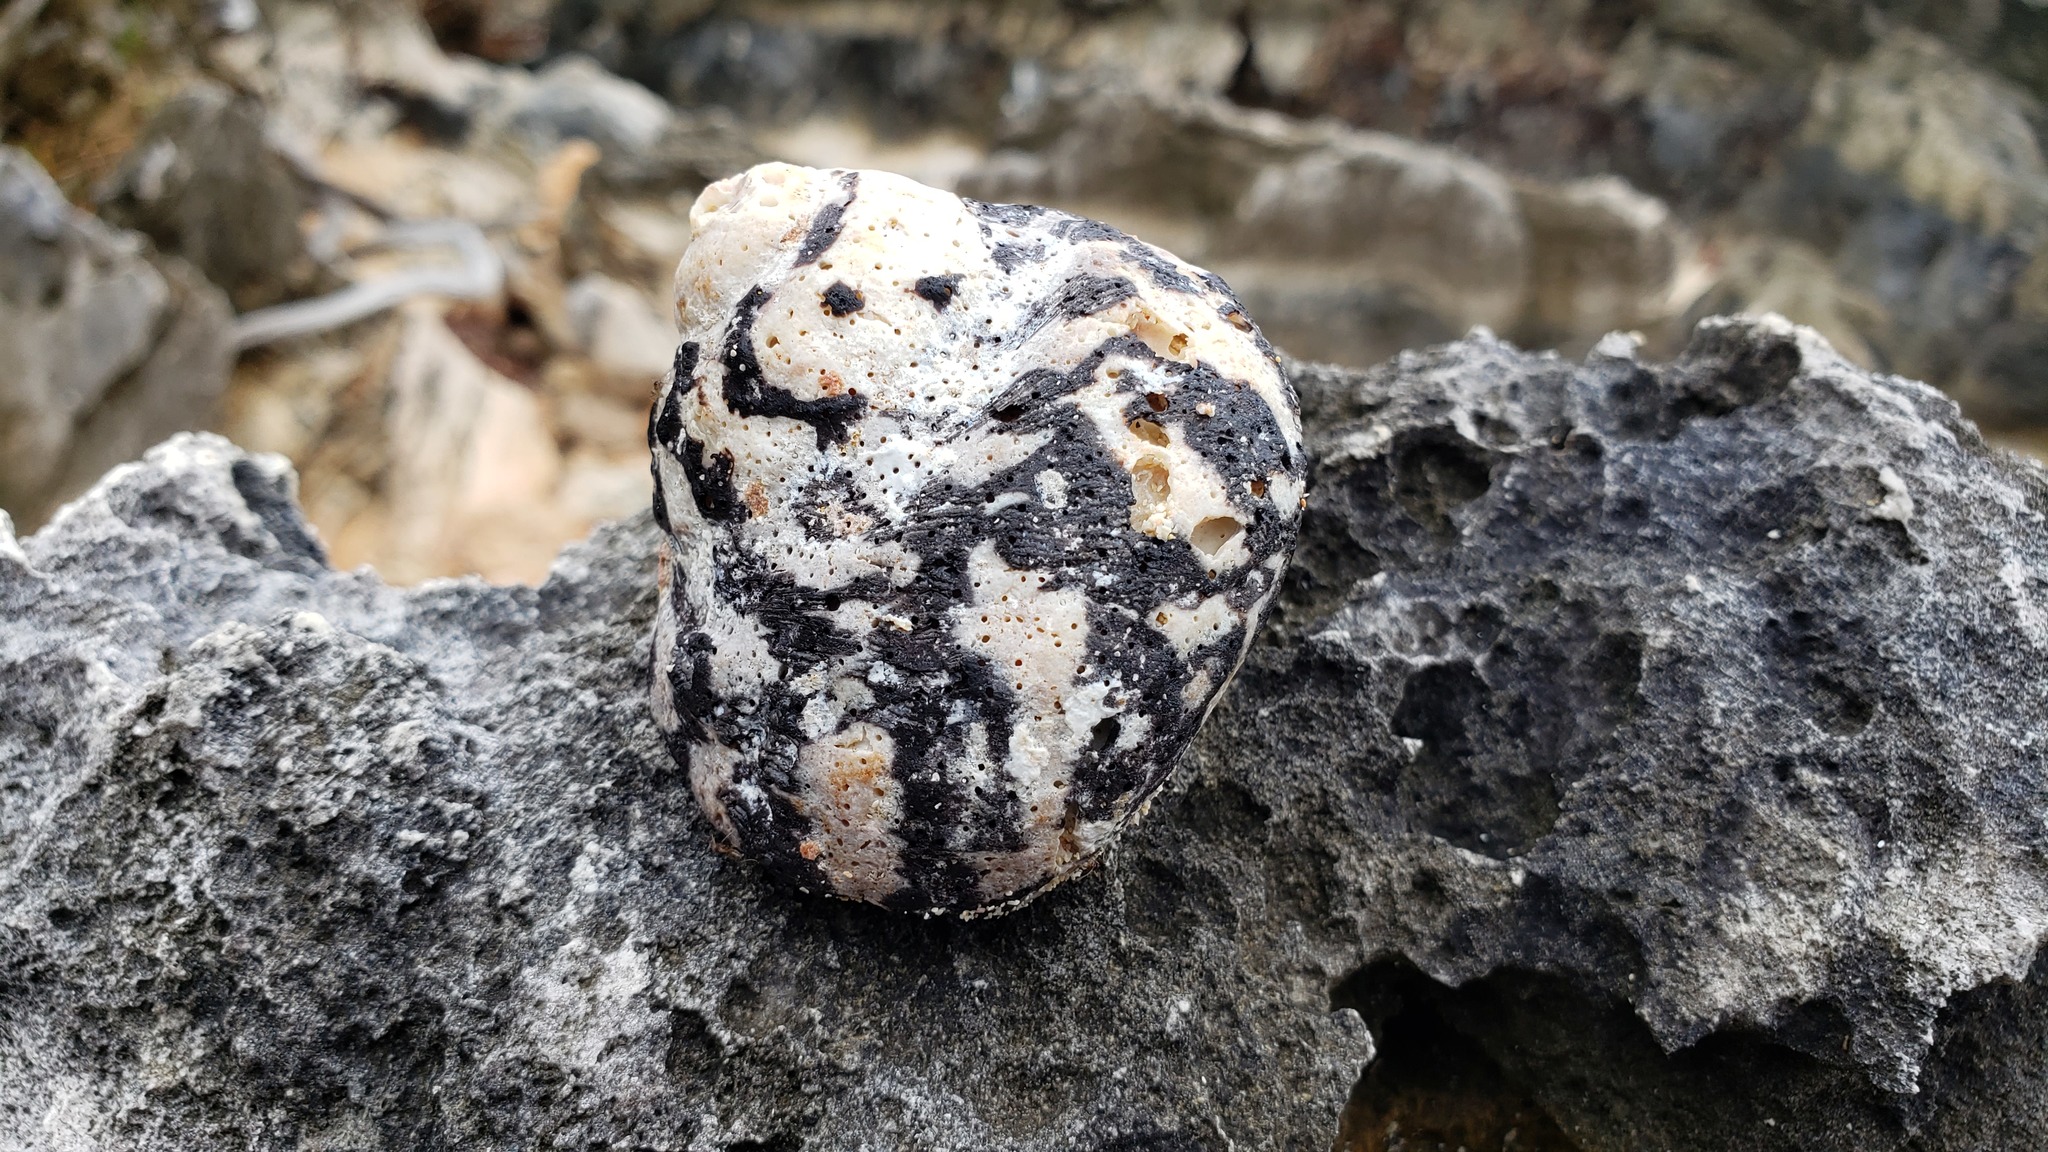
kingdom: Animalia
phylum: Mollusca
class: Gastropoda
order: Trochida
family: Tegulidae
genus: Cittarium
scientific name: Cittarium pica
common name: West indian topshell
